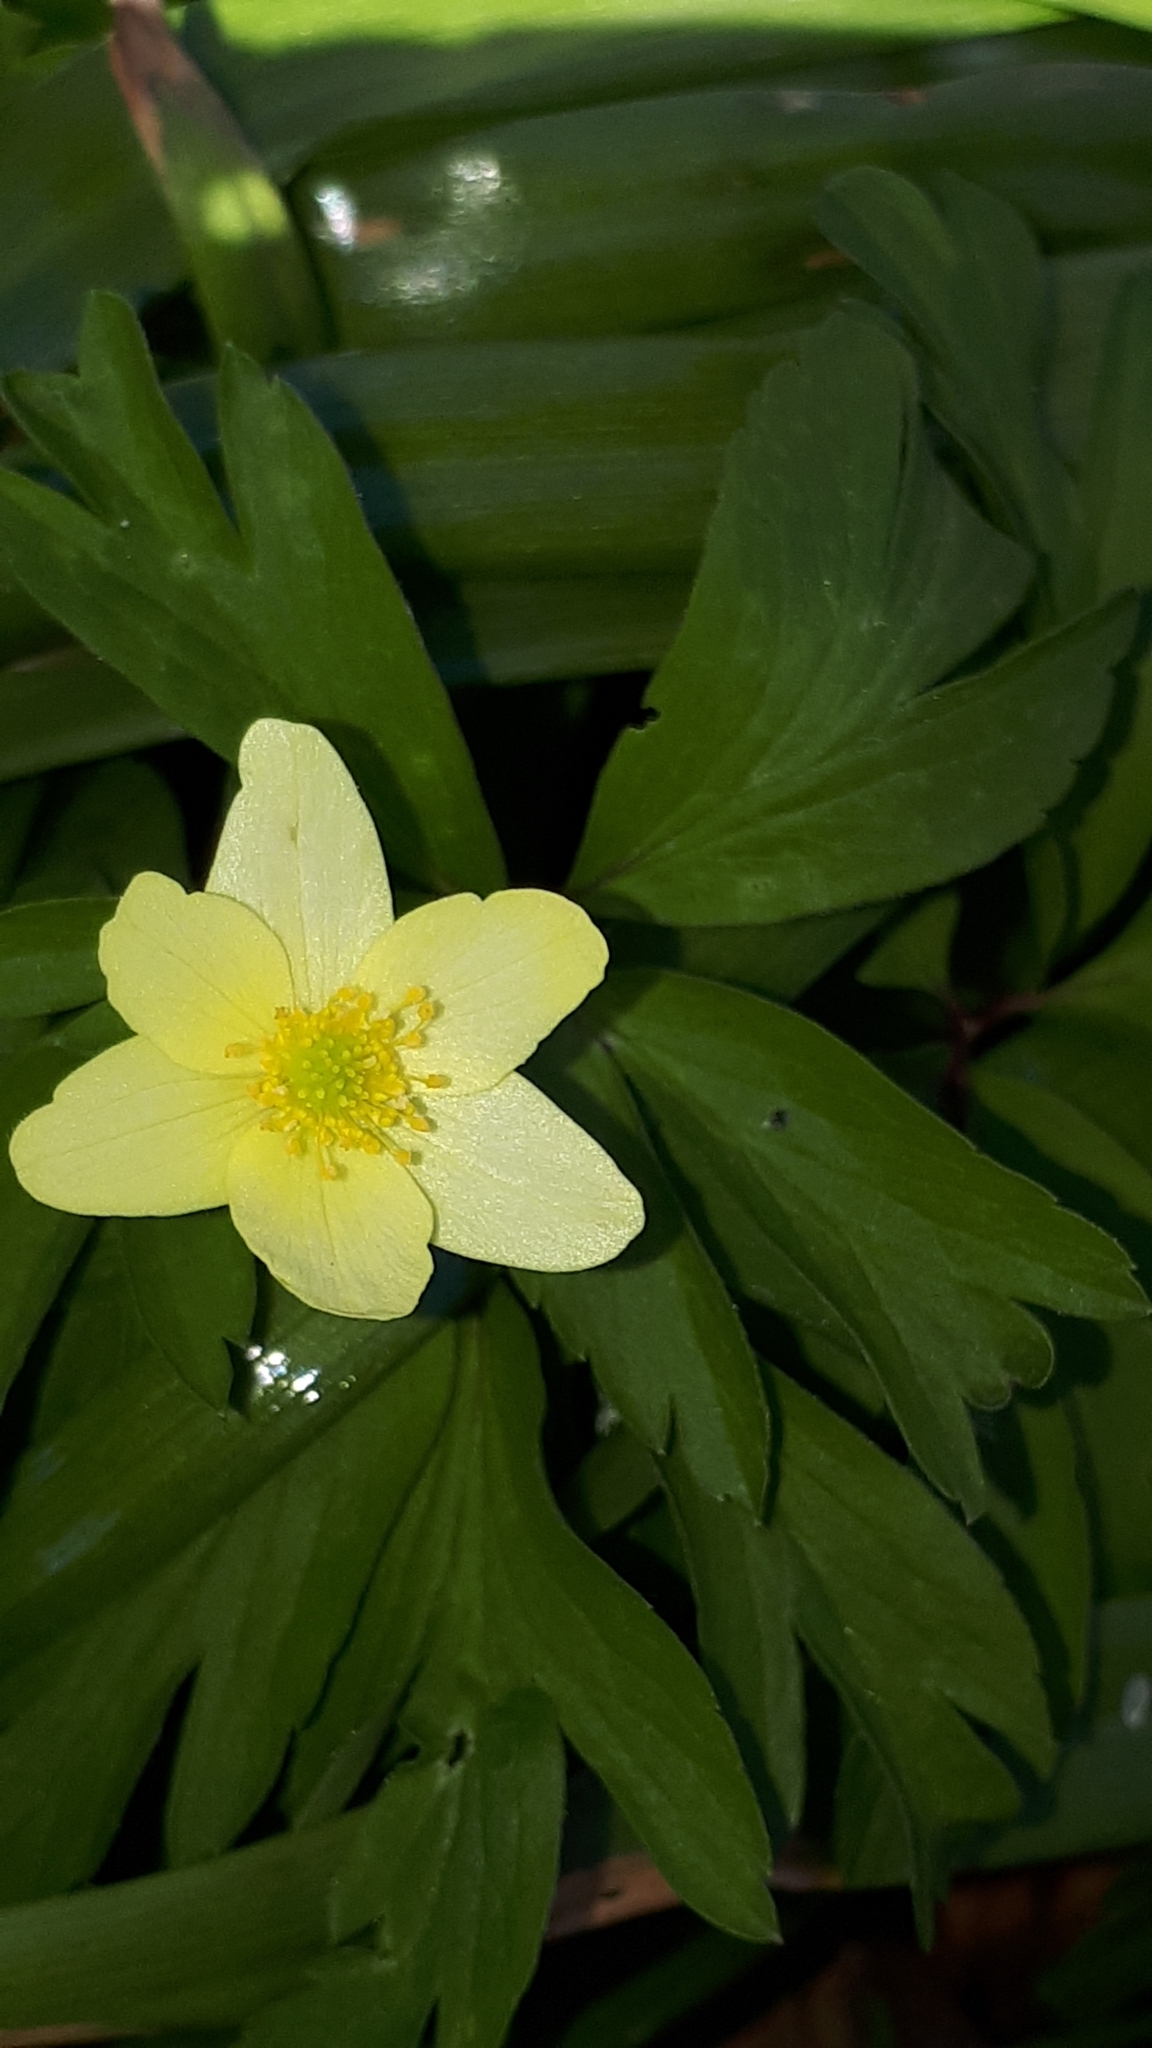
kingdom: Plantae
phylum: Tracheophyta
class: Magnoliopsida
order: Ranunculales
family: Ranunculaceae
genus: Anemone
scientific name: Anemone ranunculoides
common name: Yellow anemone
